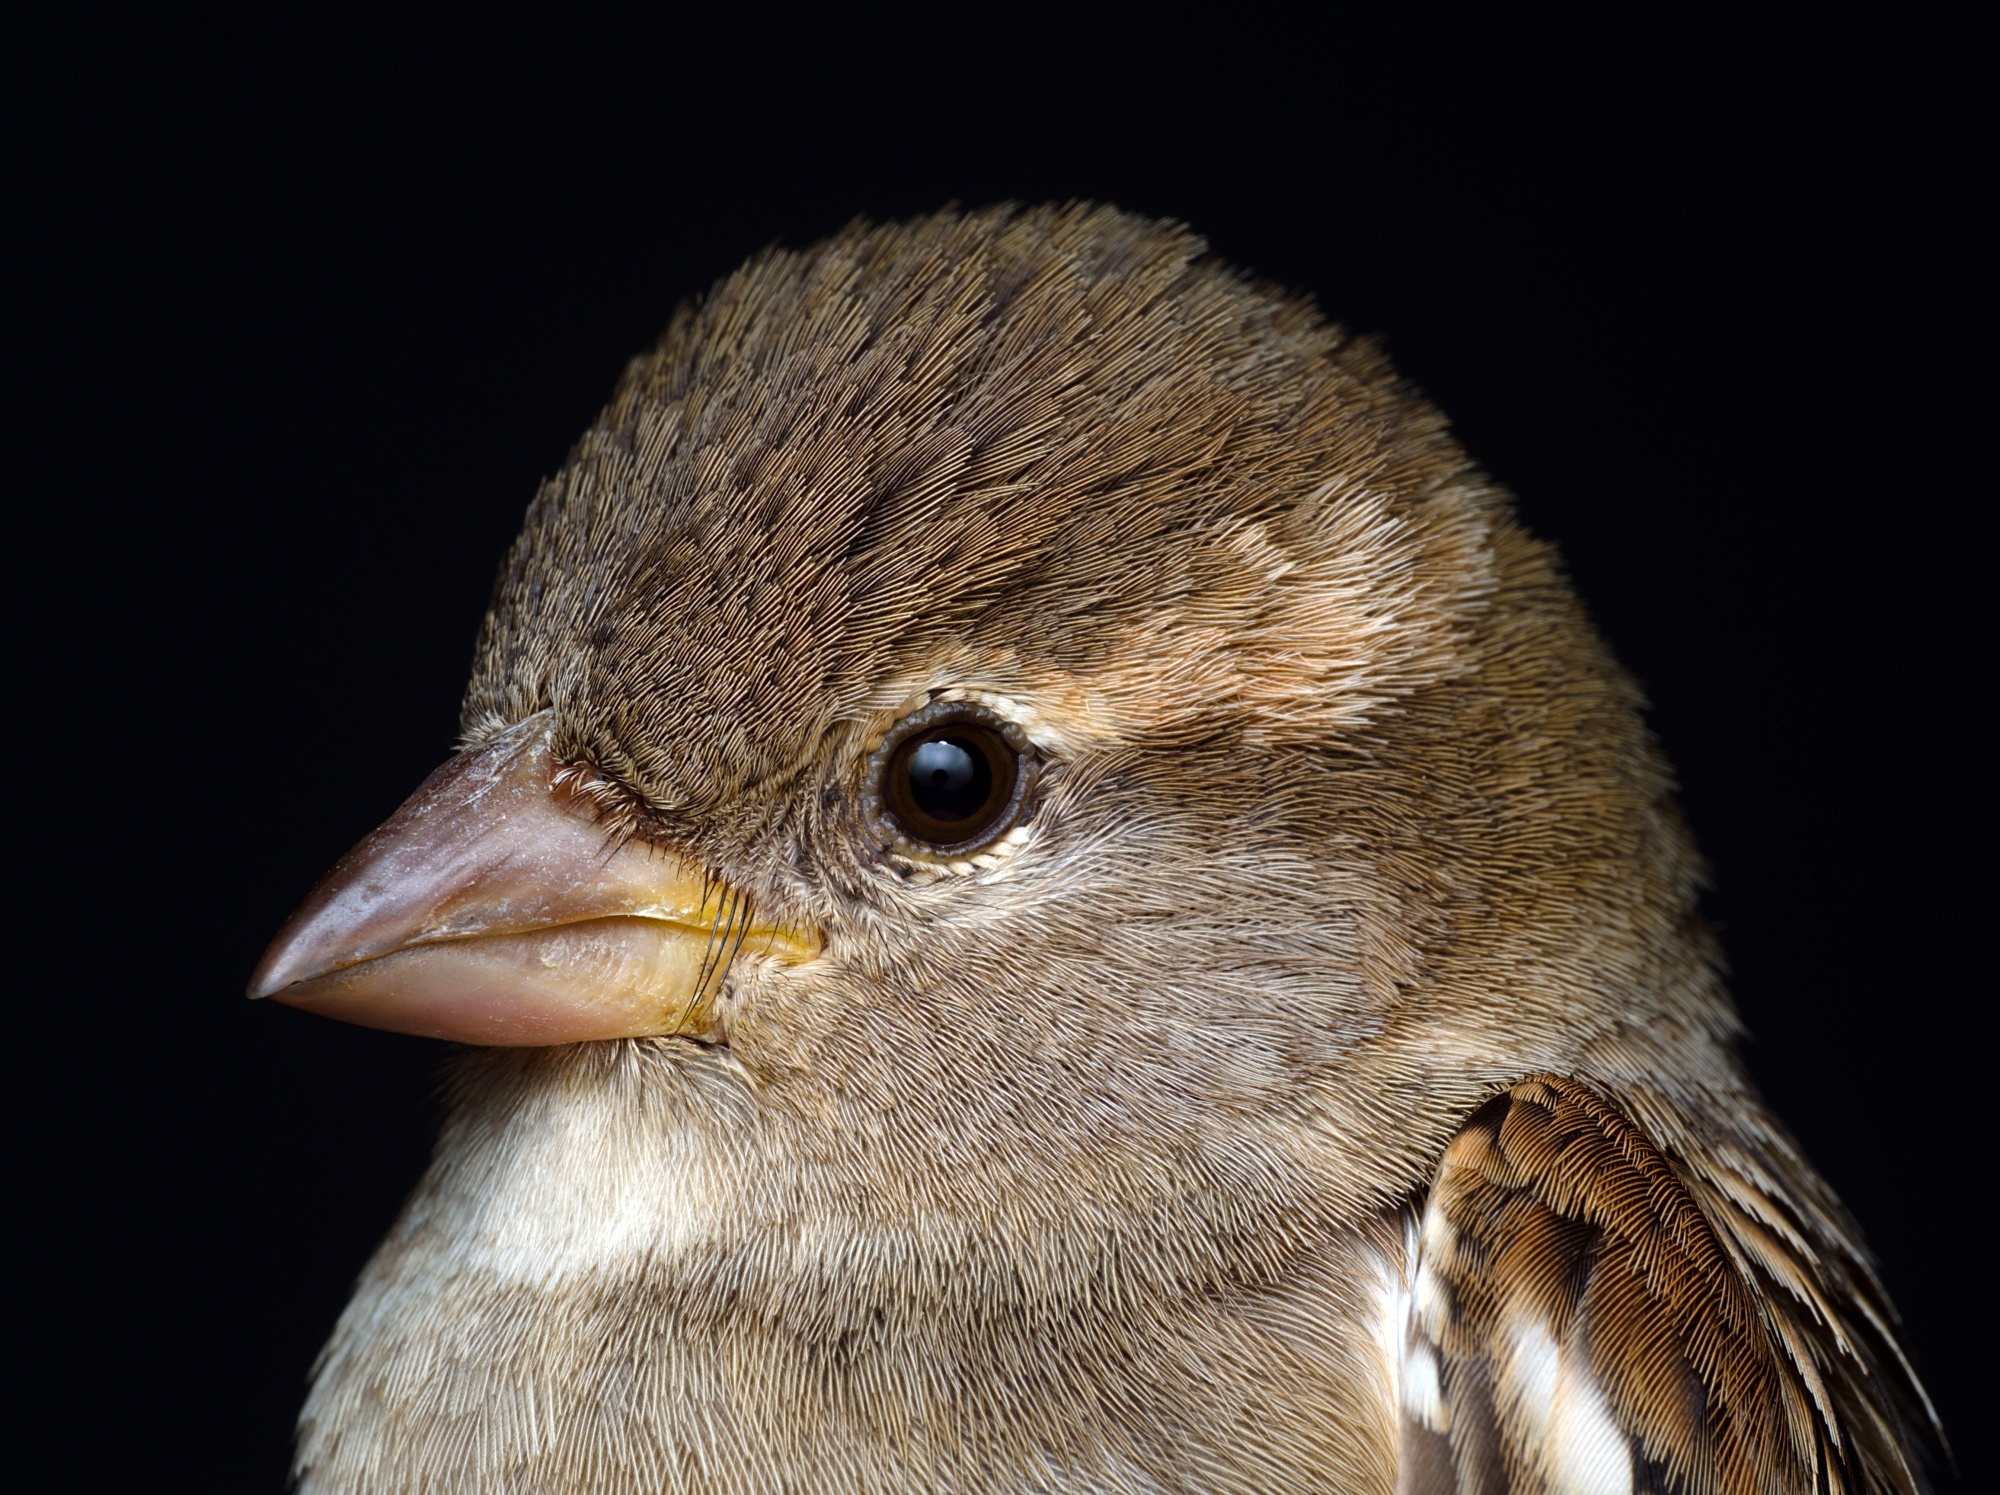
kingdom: Animalia
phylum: Chordata
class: Aves
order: Passeriformes
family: Passeridae
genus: Passer
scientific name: Passer domesticus
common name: House sparrow
